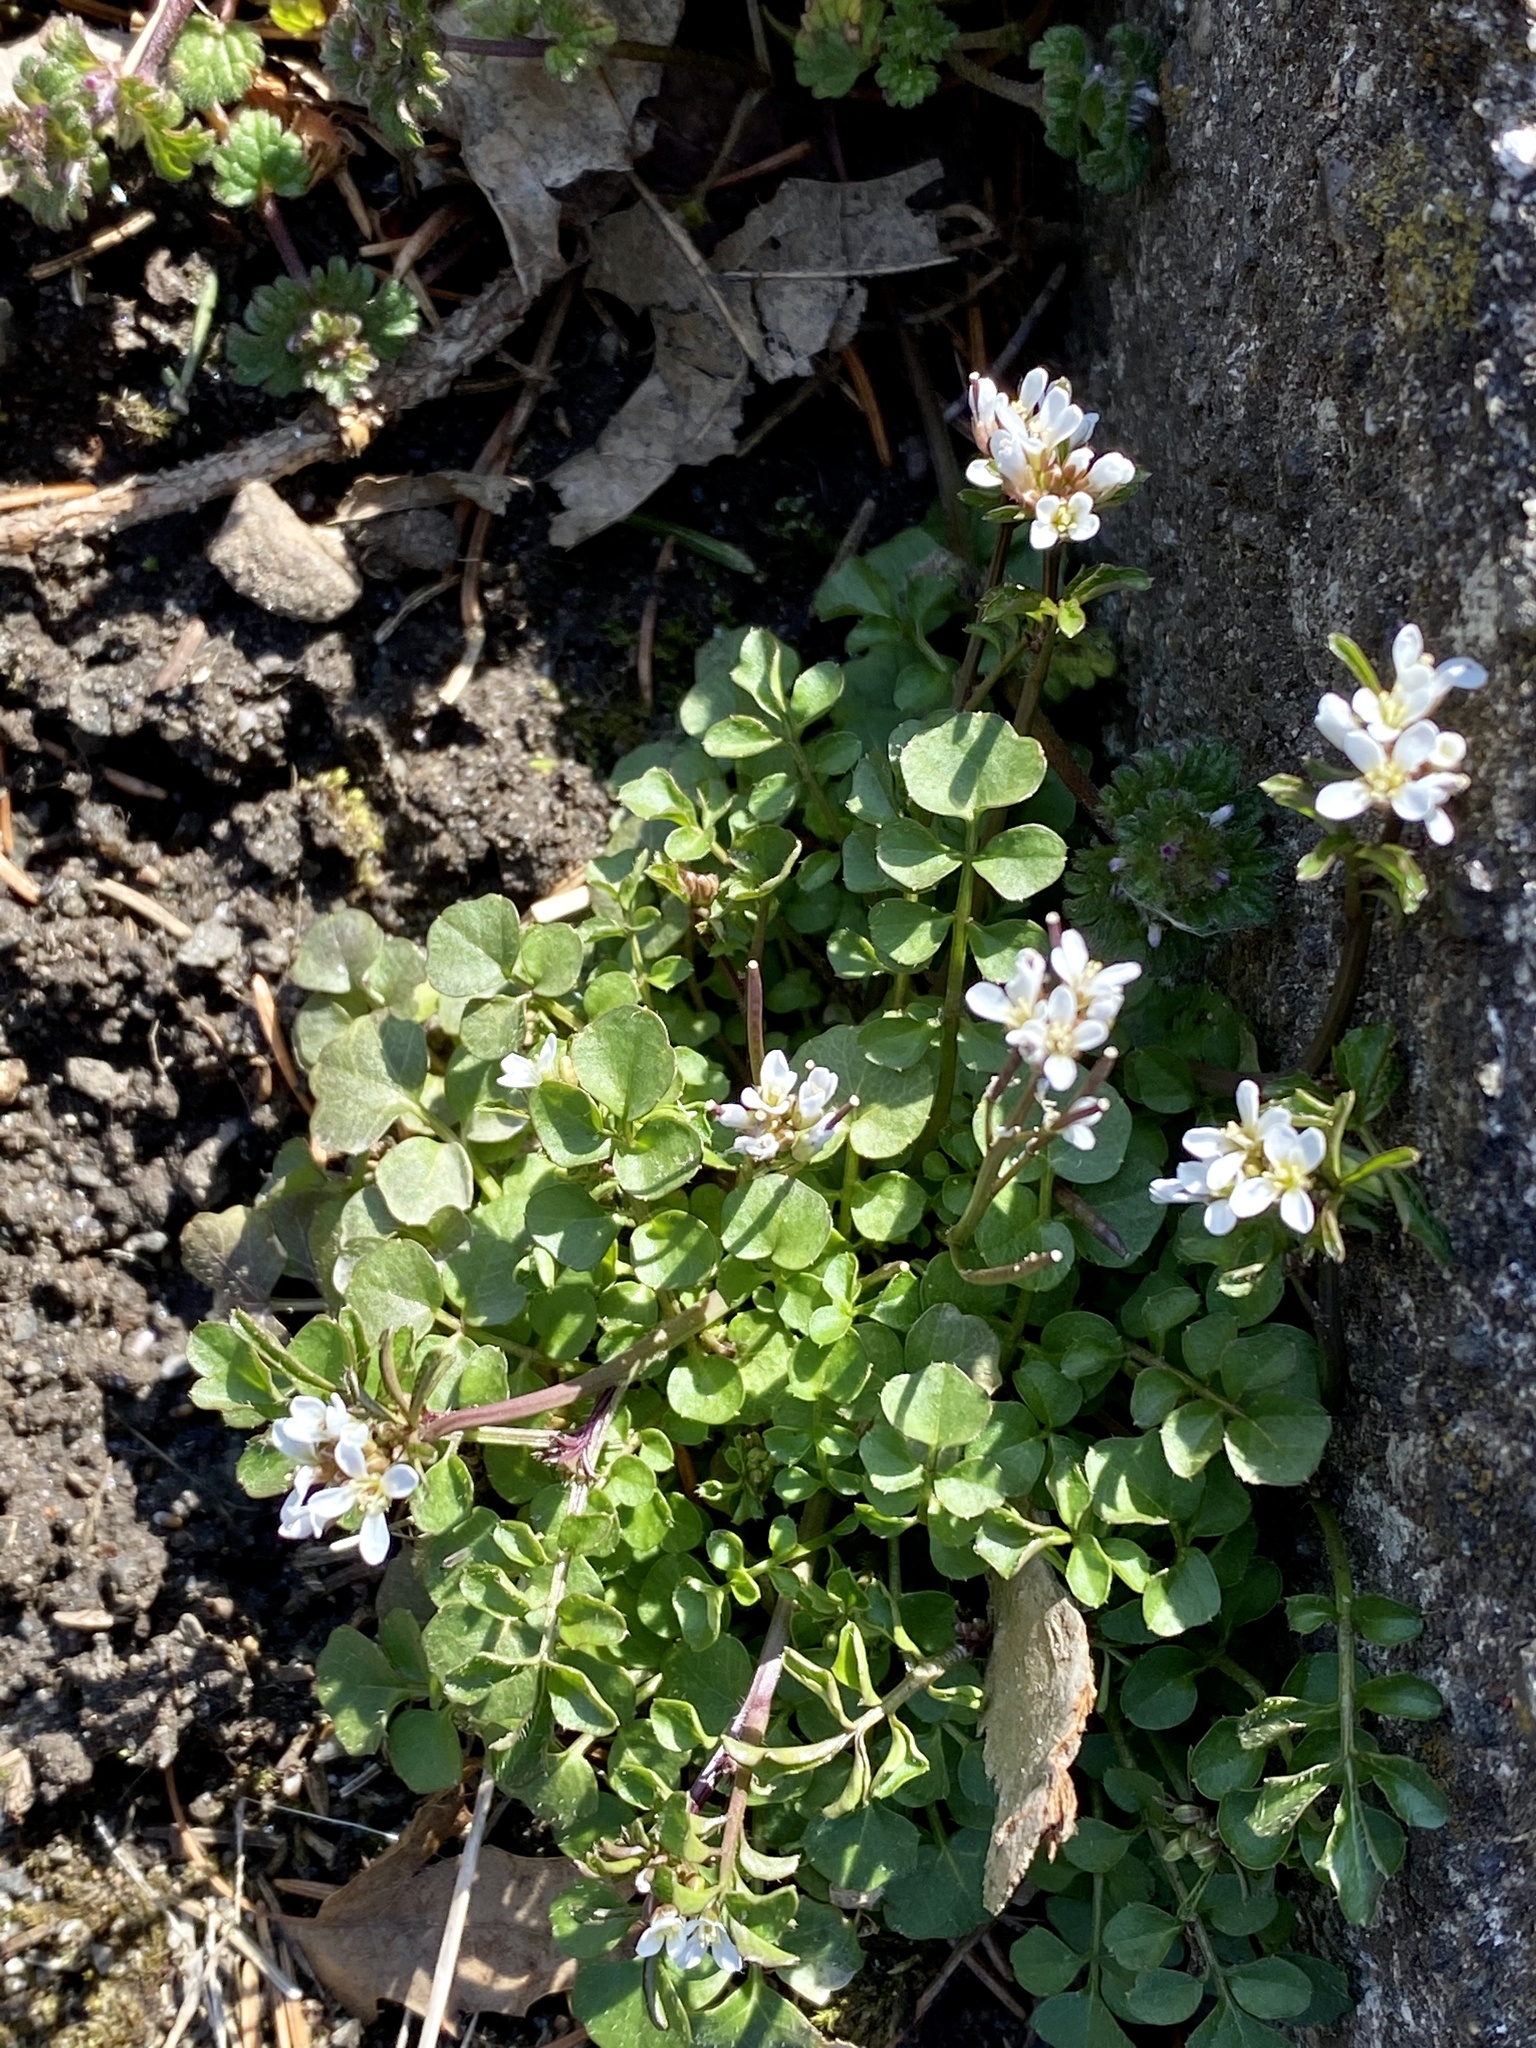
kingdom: Plantae
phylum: Tracheophyta
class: Magnoliopsida
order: Brassicales
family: Brassicaceae
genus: Cardamine
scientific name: Cardamine hirsuta
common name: Hairy bittercress
